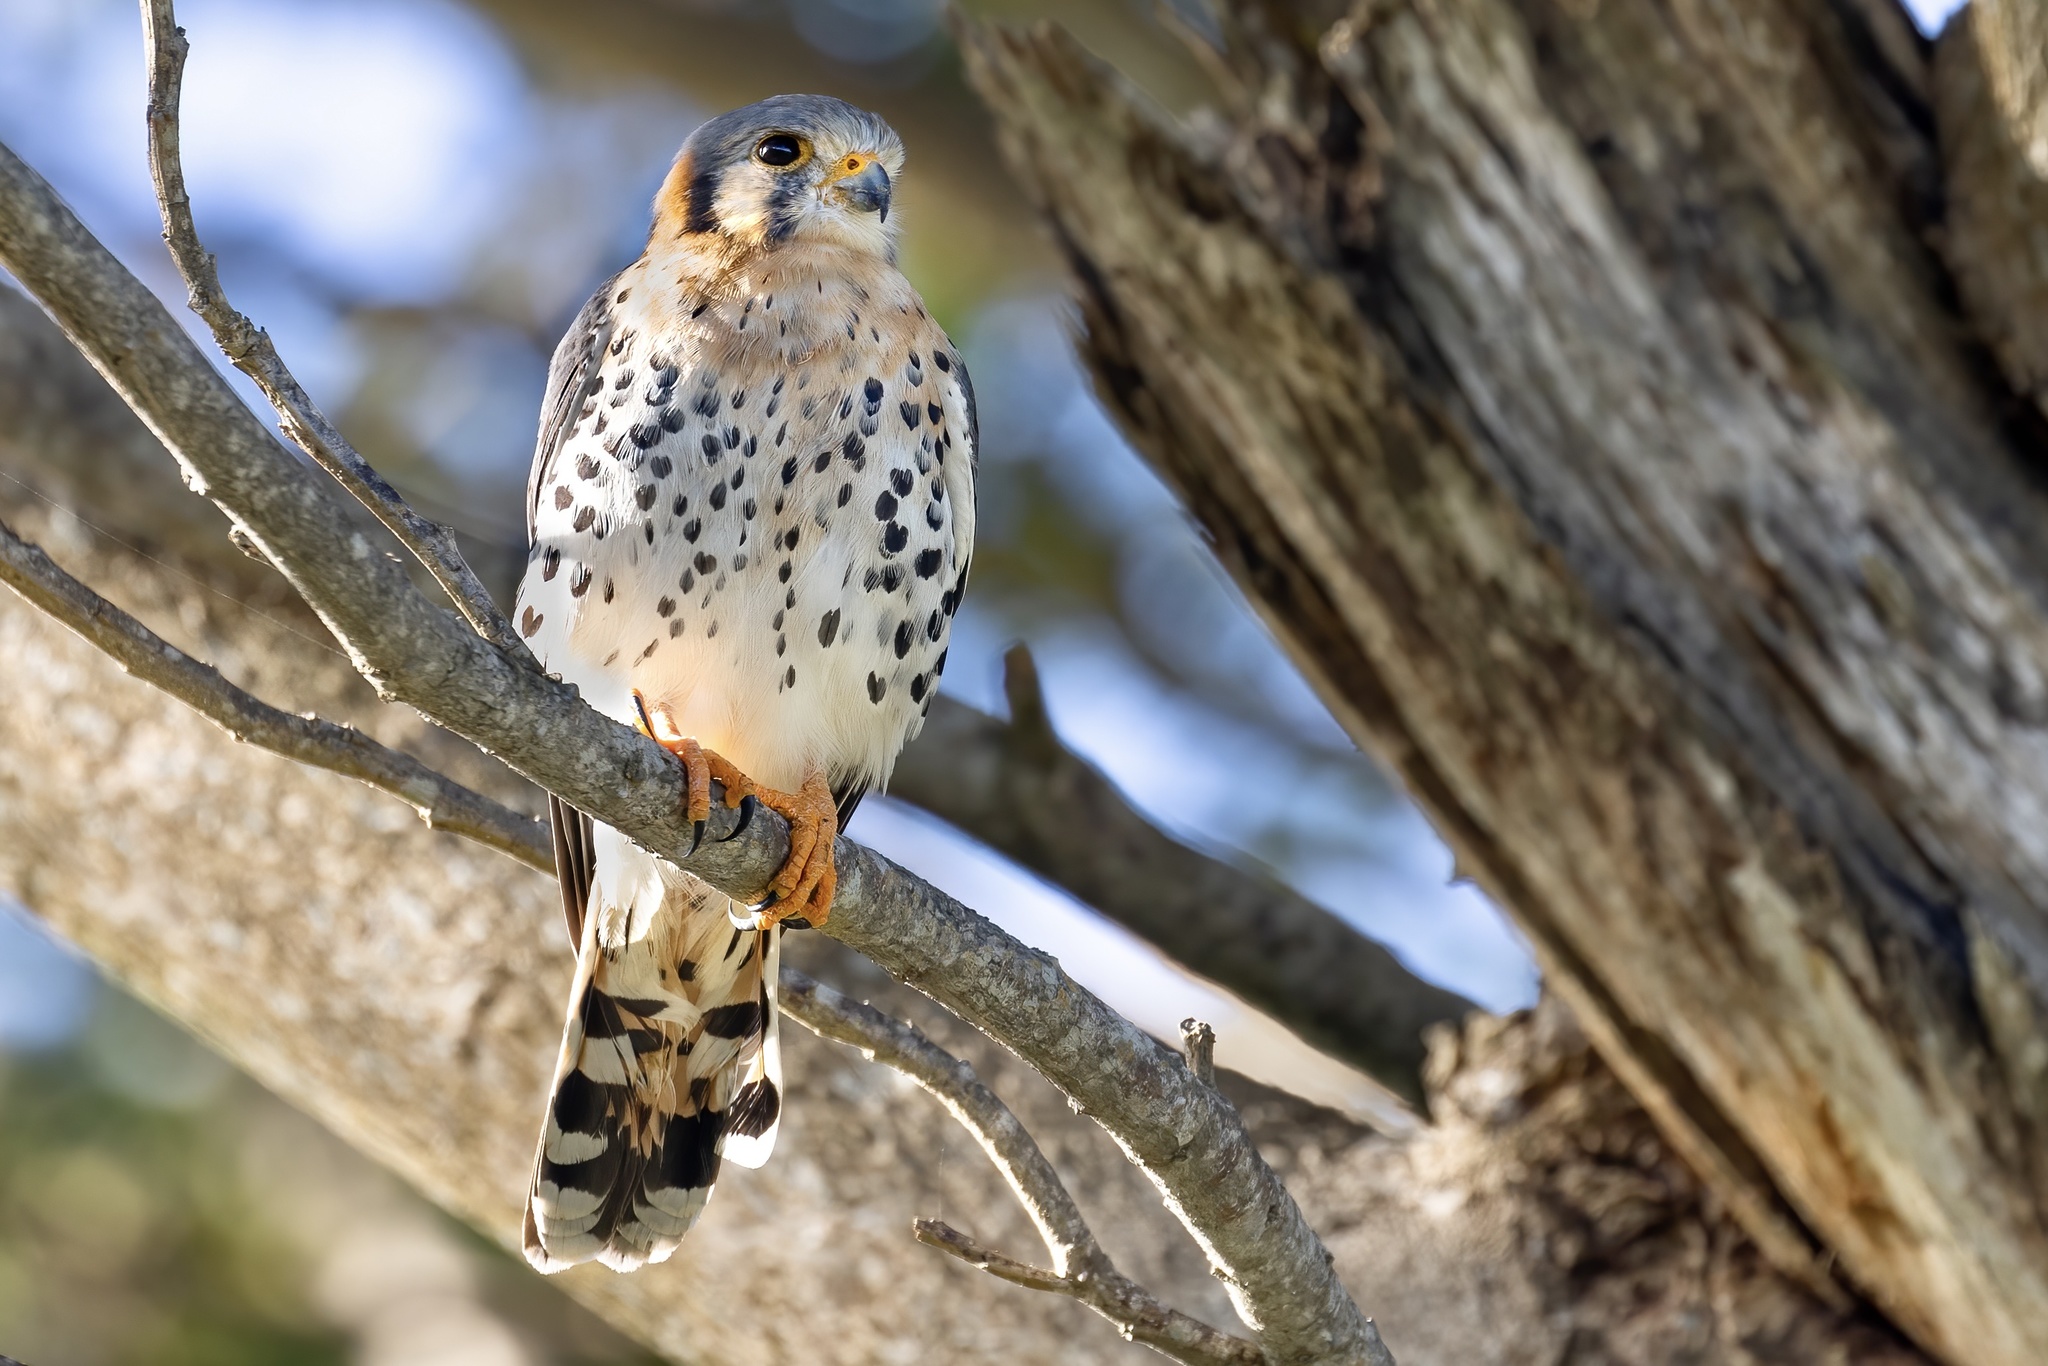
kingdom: Animalia
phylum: Chordata
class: Aves
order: Falconiformes
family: Falconidae
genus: Falco
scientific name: Falco sparverius
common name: American kestrel
